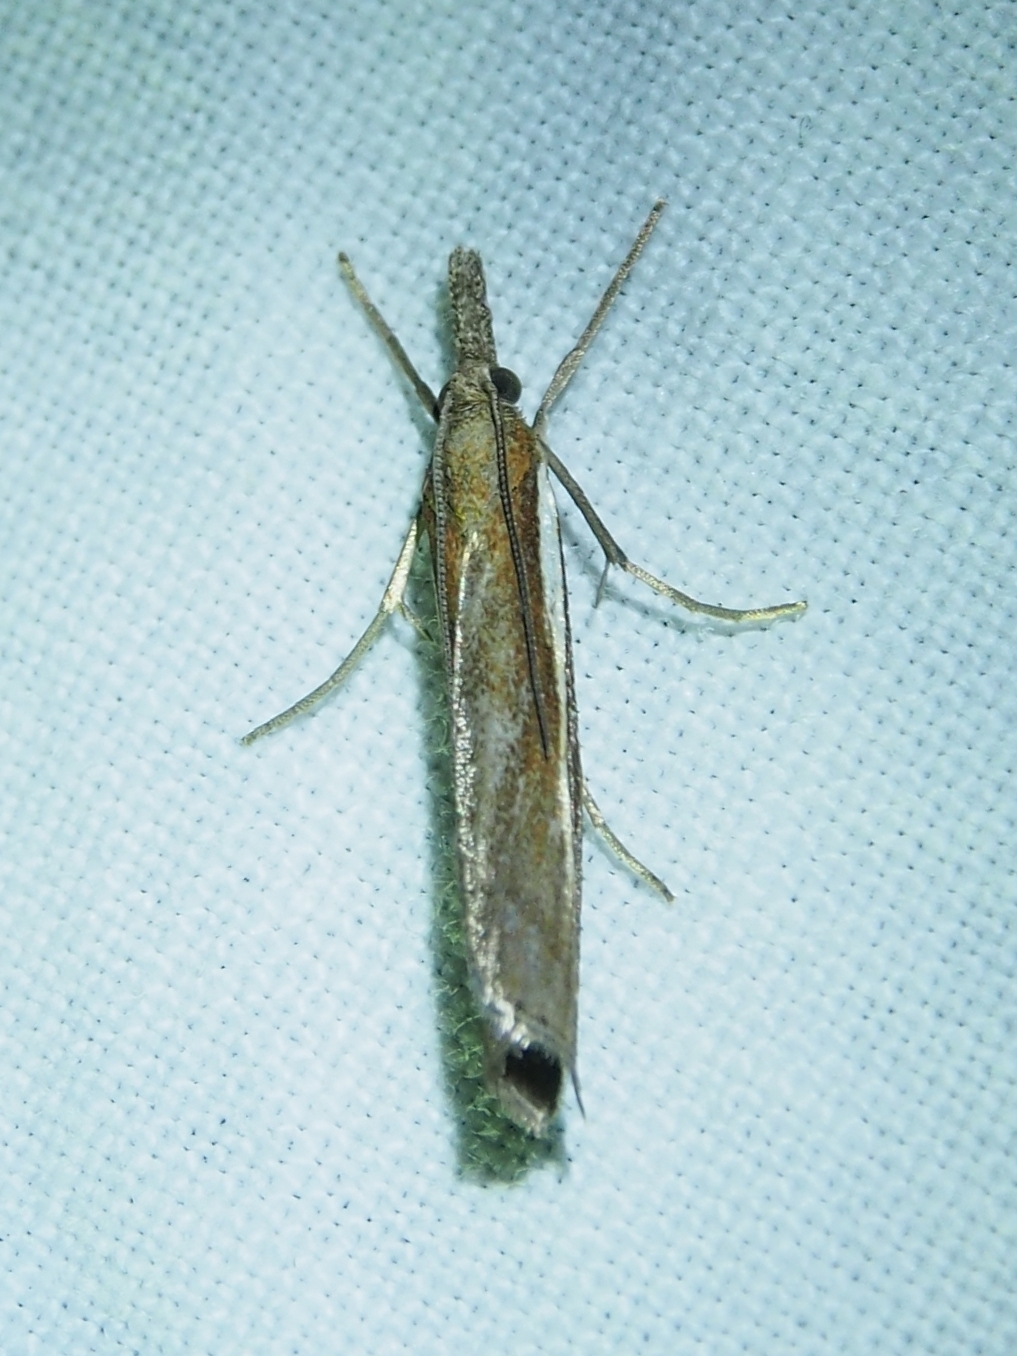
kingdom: Animalia
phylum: Arthropoda
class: Insecta
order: Lepidoptera
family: Crambidae
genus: Agriphila
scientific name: Agriphila tristellus
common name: Common grass-veneer
